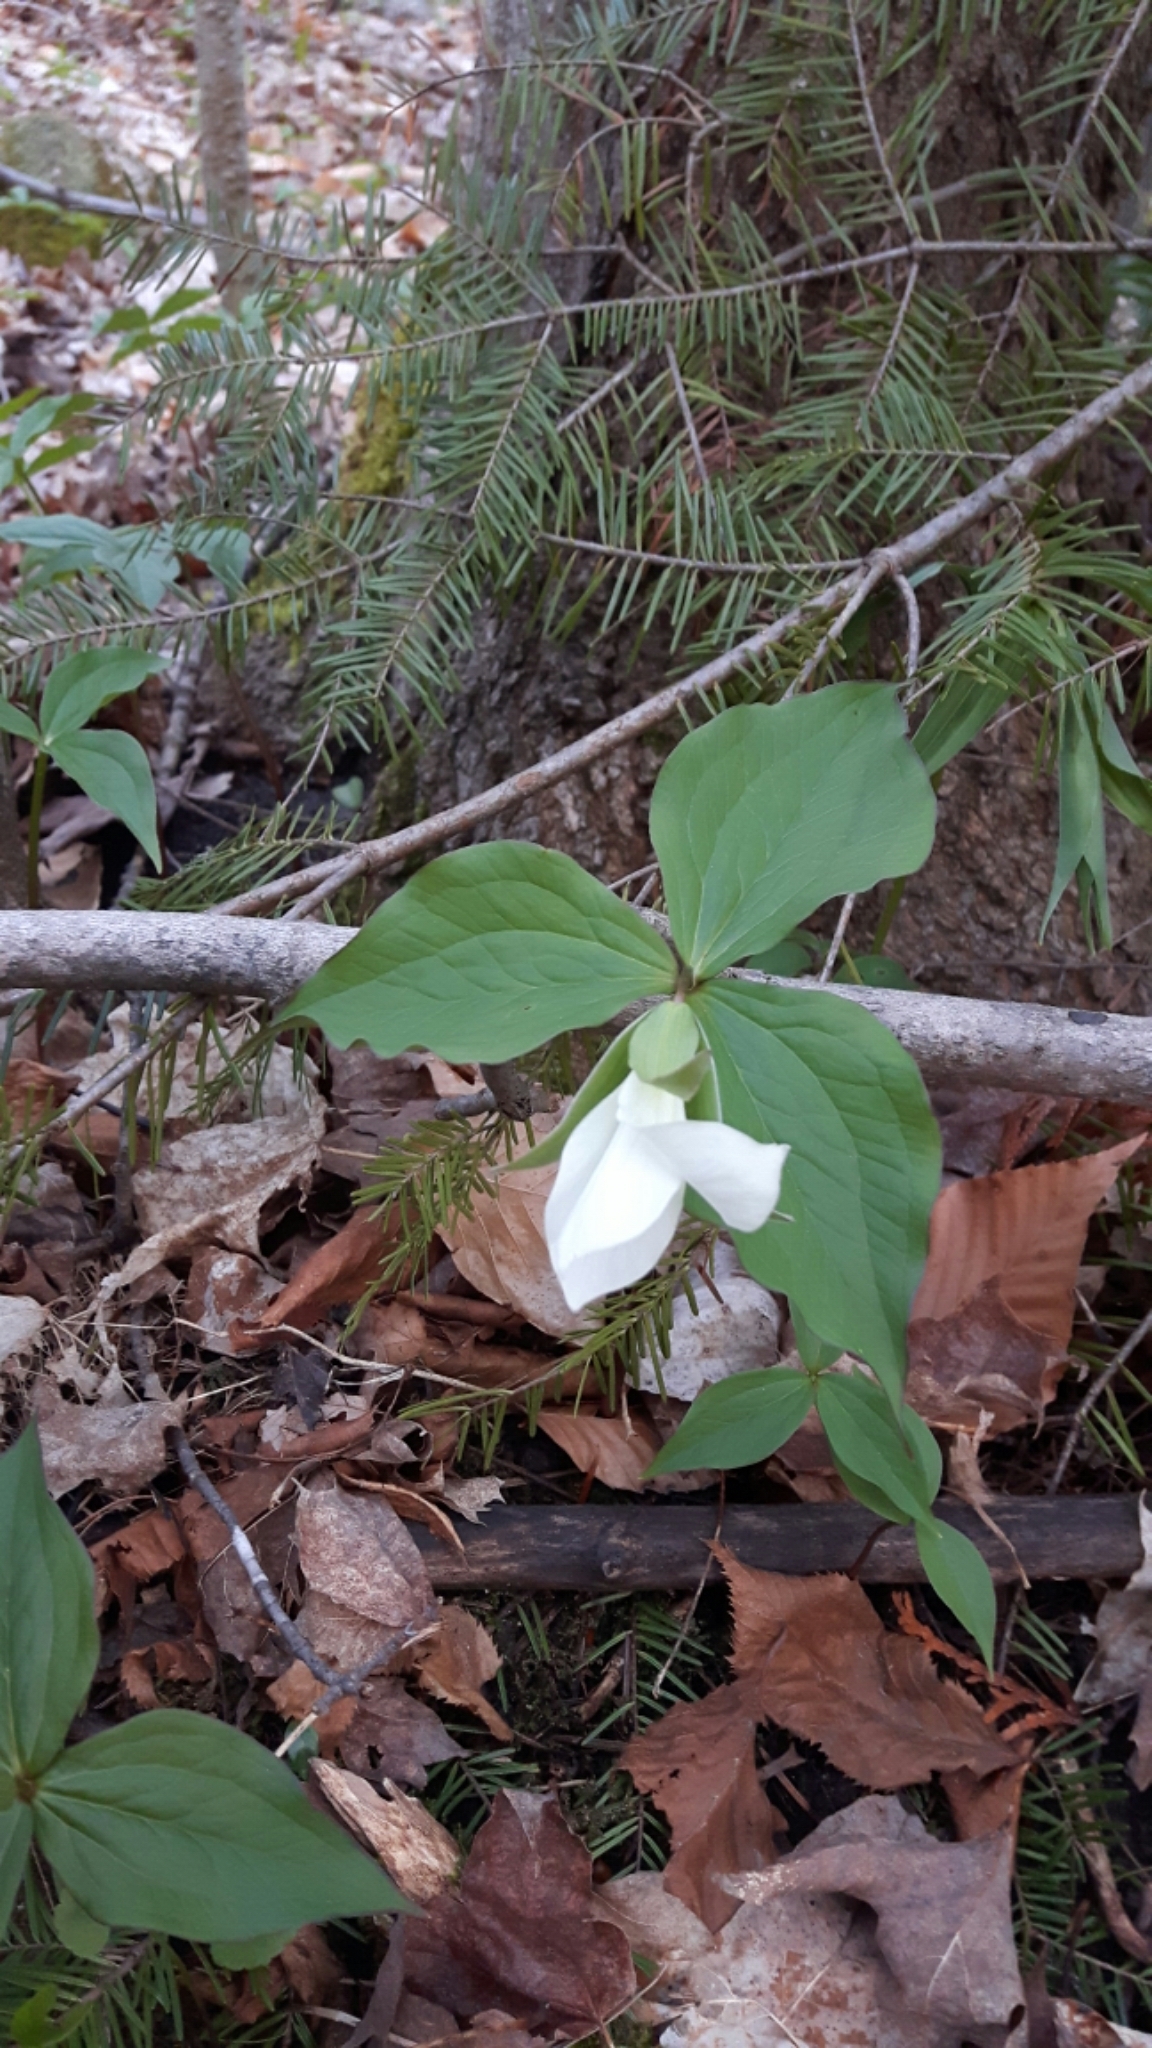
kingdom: Plantae
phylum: Tracheophyta
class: Liliopsida
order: Liliales
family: Melanthiaceae
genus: Trillium
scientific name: Trillium grandiflorum
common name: Great white trillium
